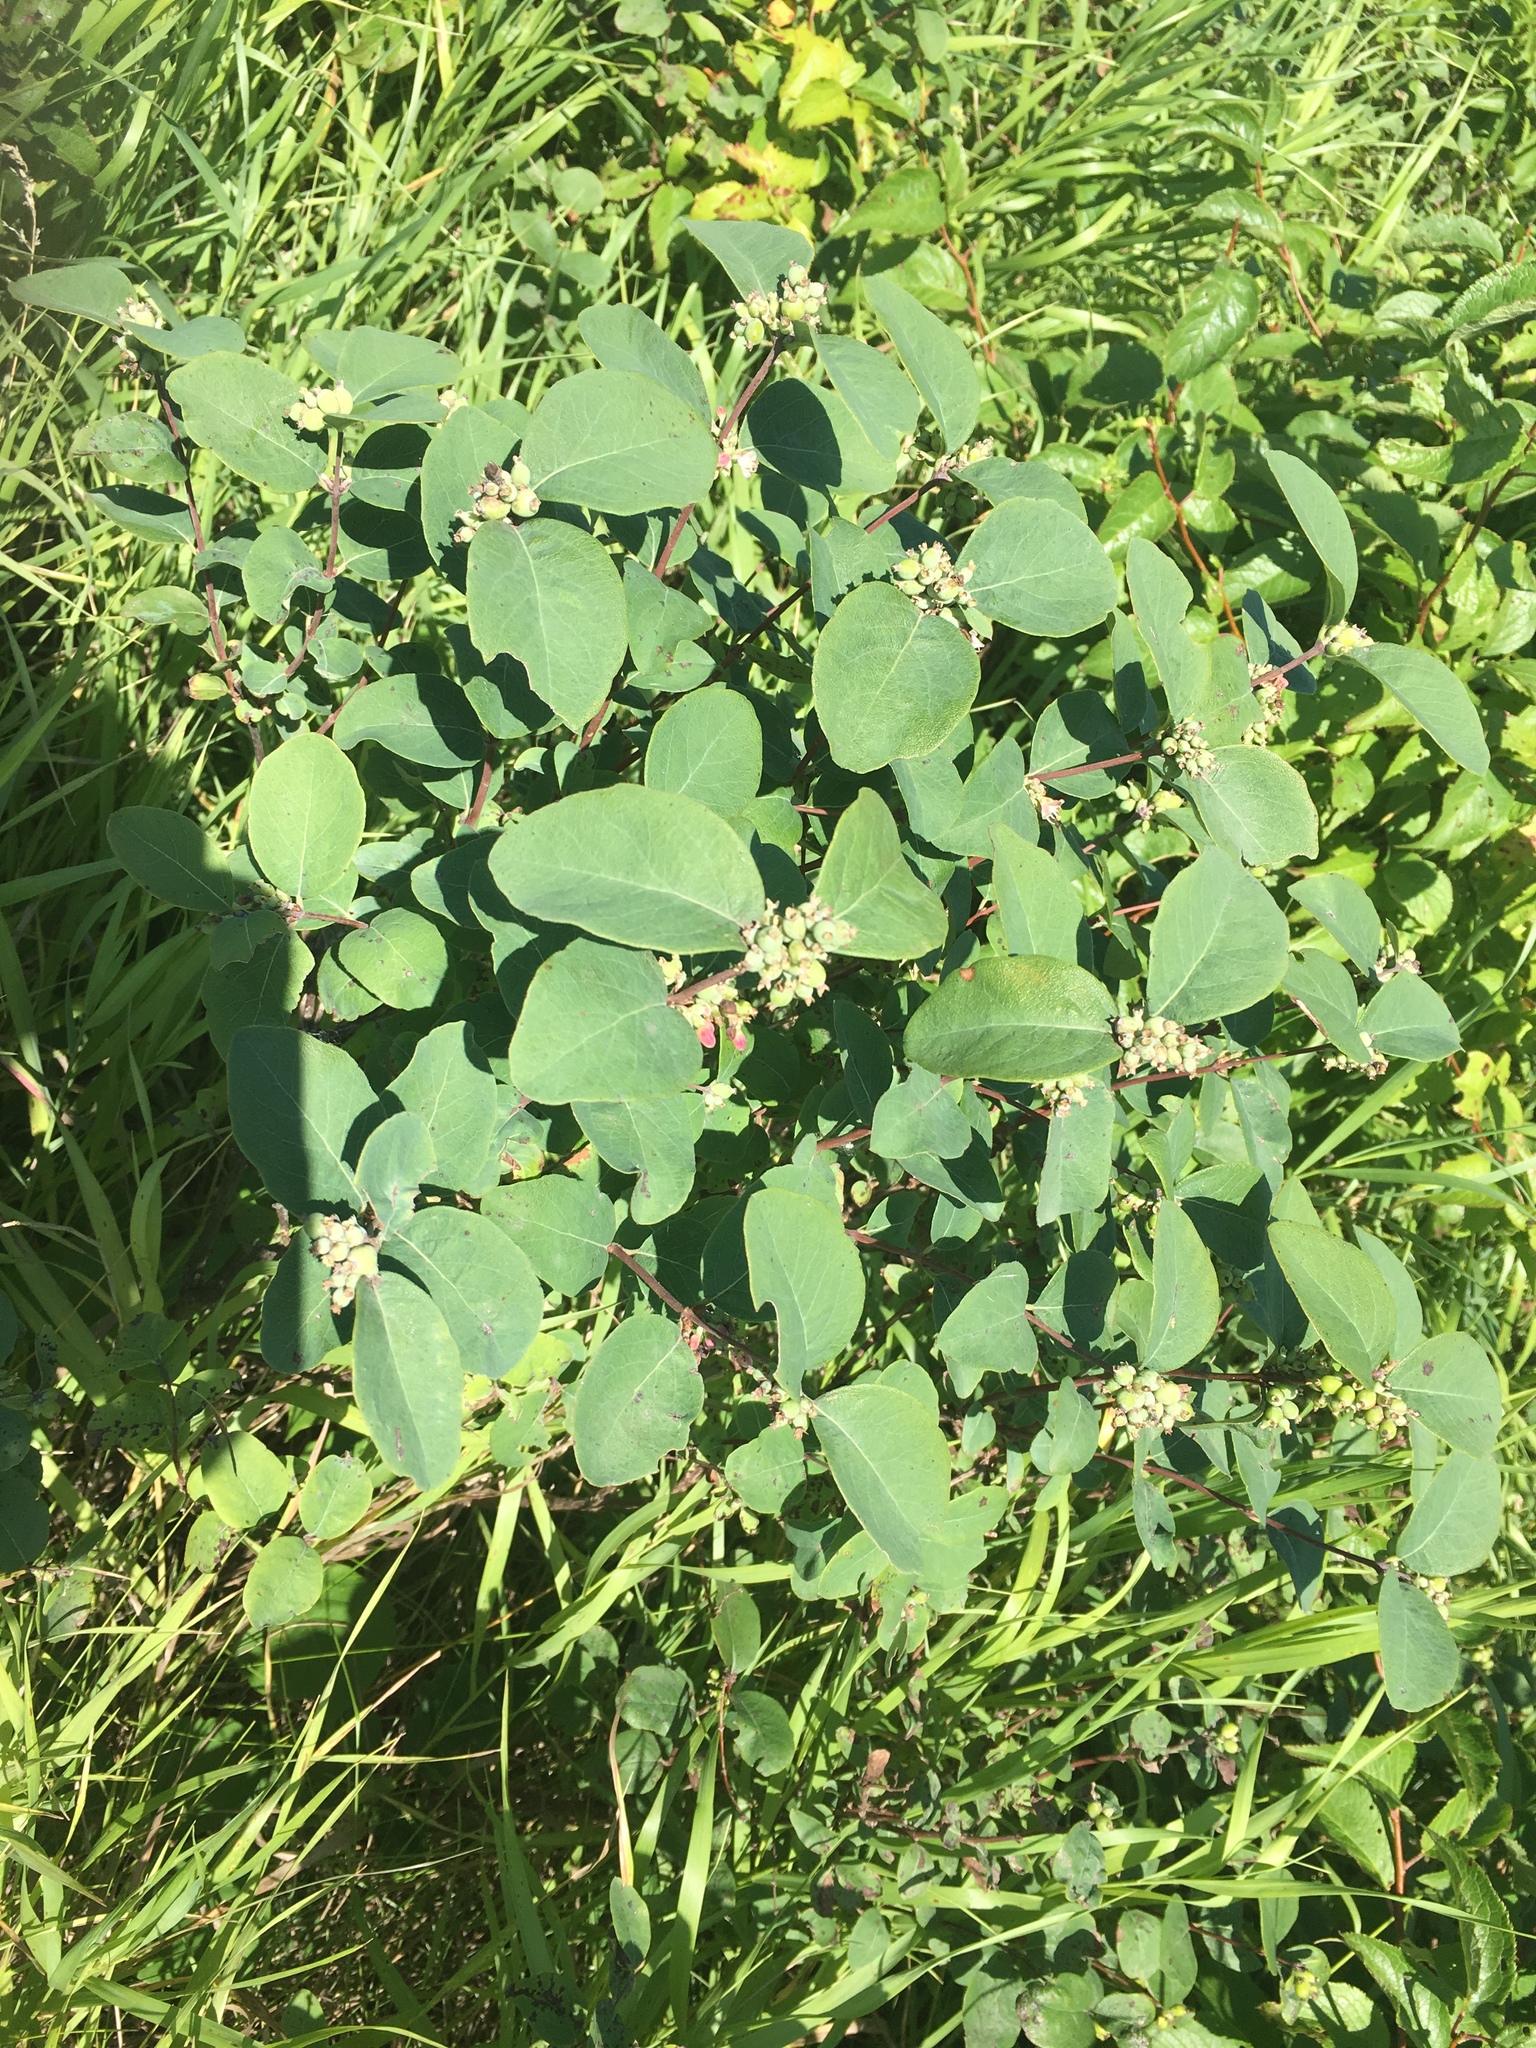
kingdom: Plantae
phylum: Tracheophyta
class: Magnoliopsida
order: Dipsacales
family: Caprifoliaceae
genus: Symphoricarpos
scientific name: Symphoricarpos occidentalis
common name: Wolfberry
